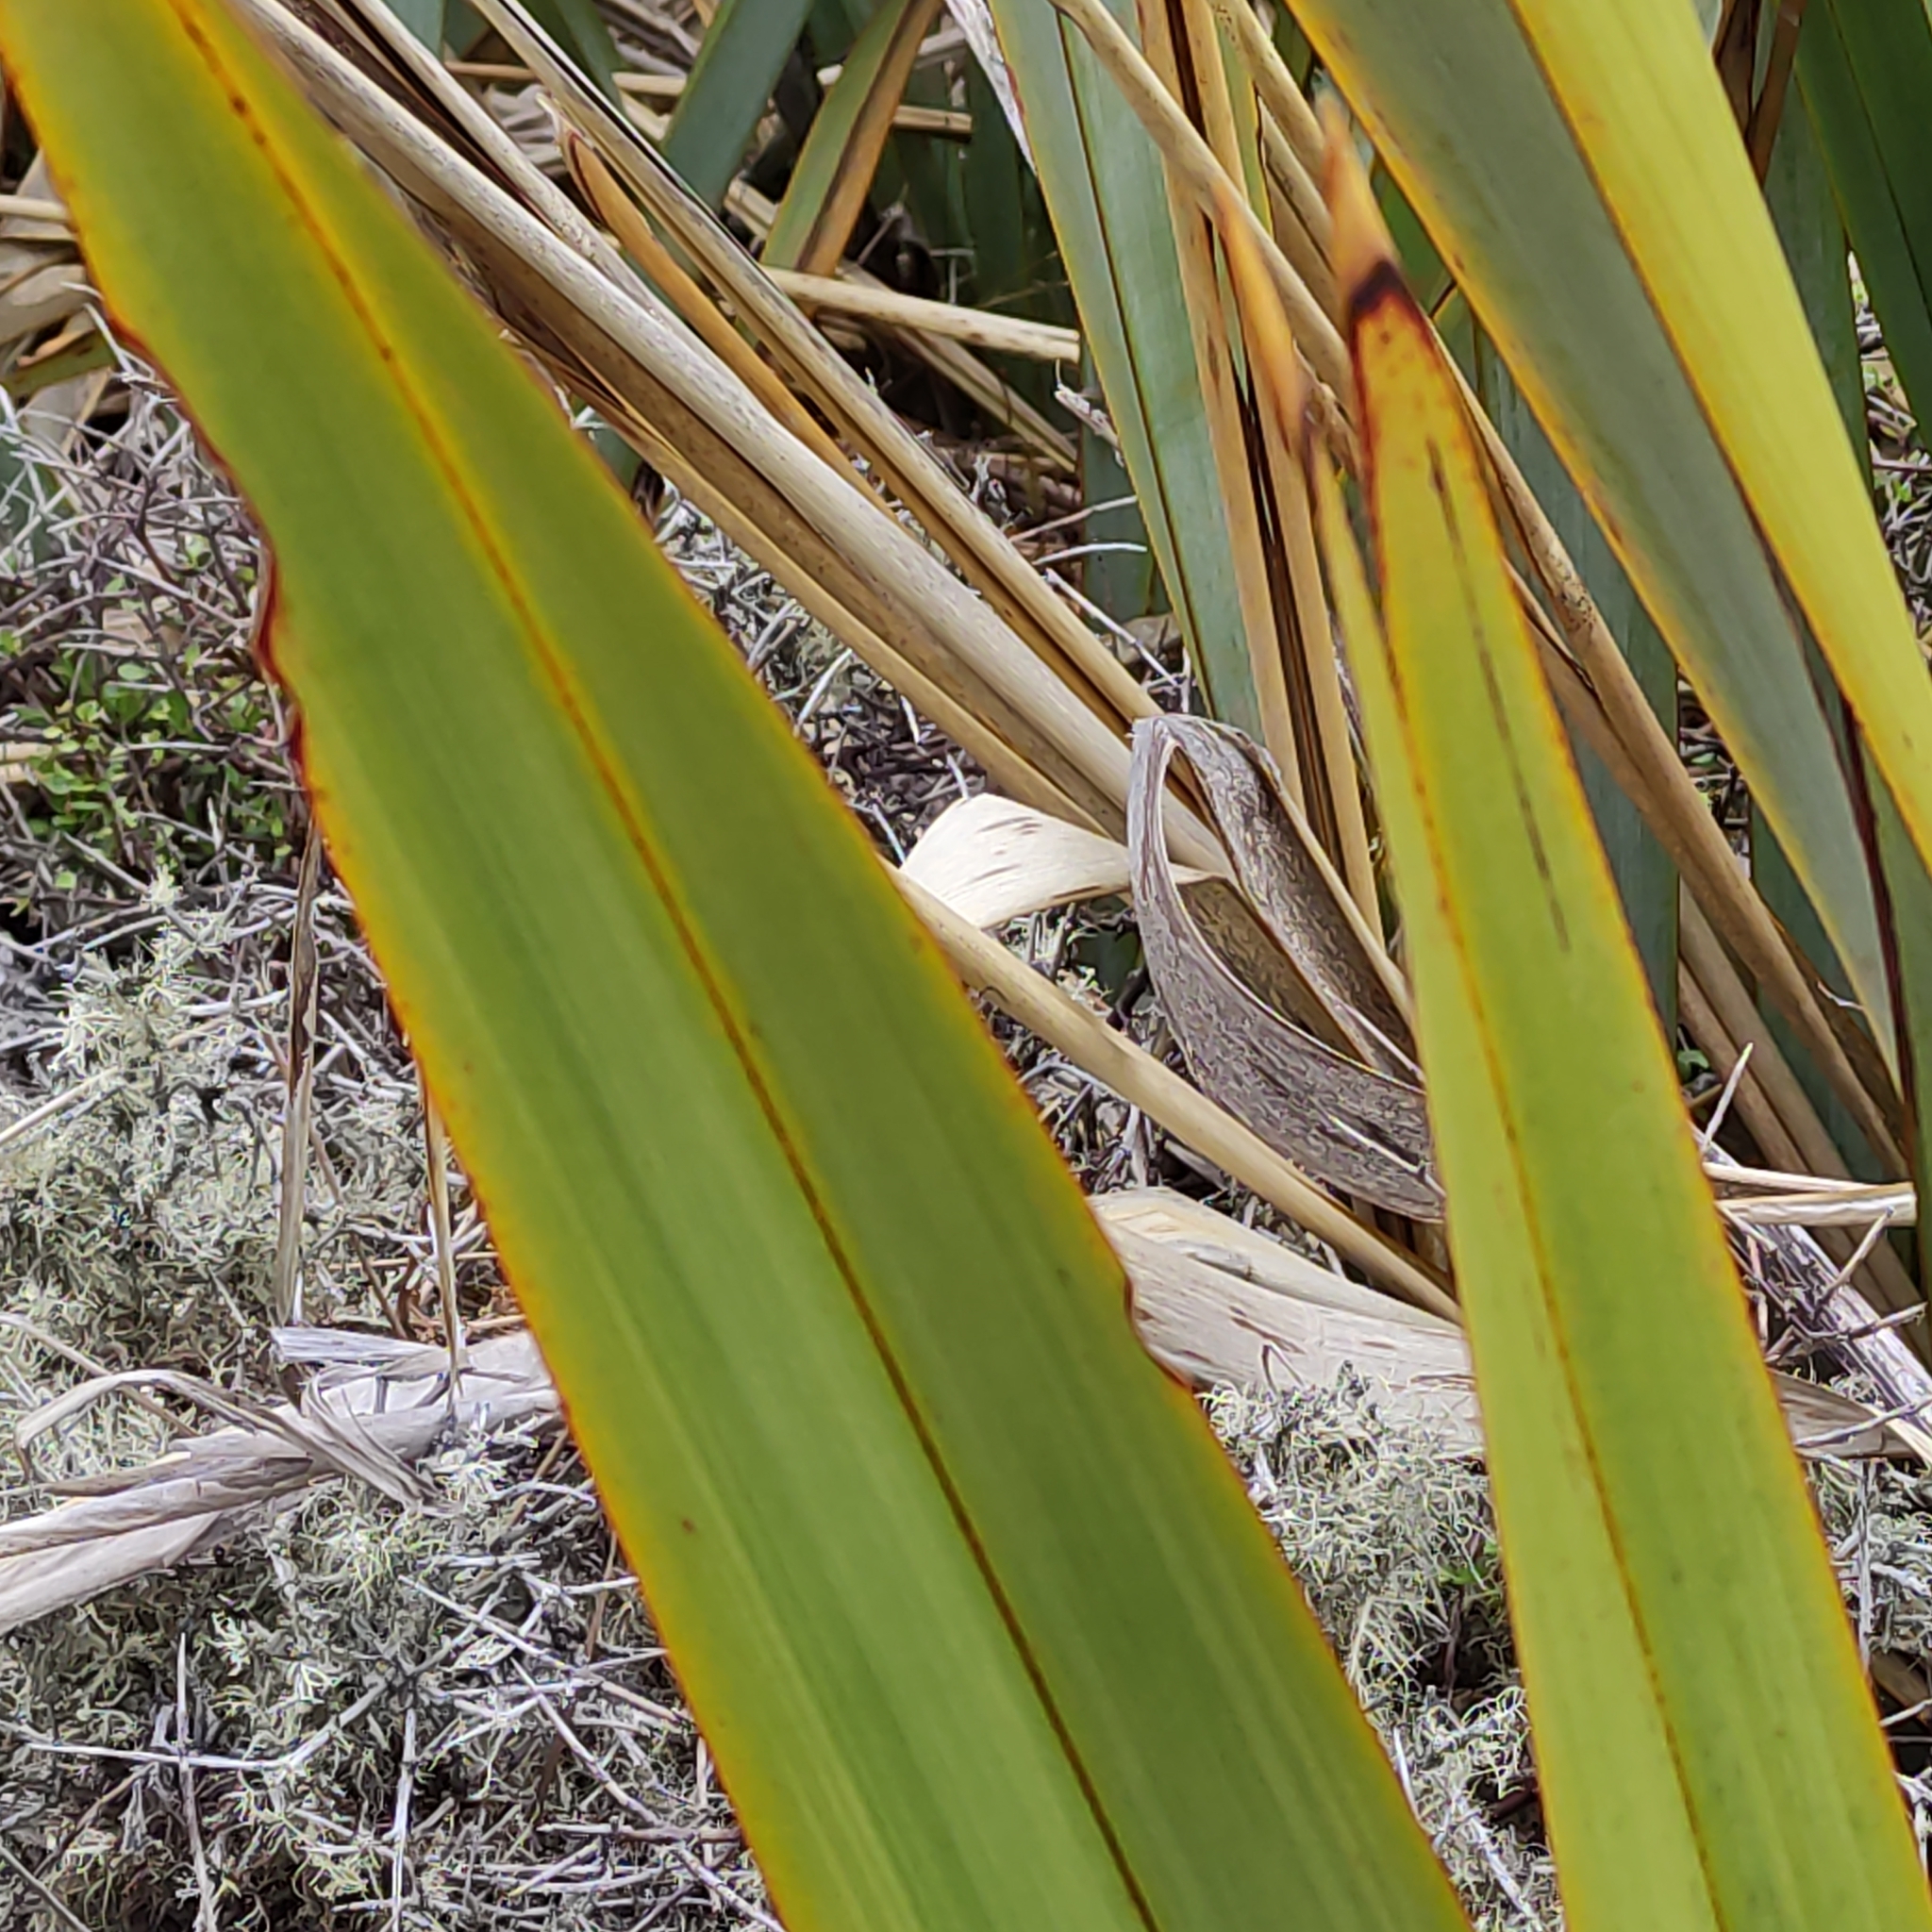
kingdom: Plantae
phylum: Tracheophyta
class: Liliopsida
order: Asparagales
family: Asphodelaceae
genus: Phormium
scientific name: Phormium tenax
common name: New zealand flax
